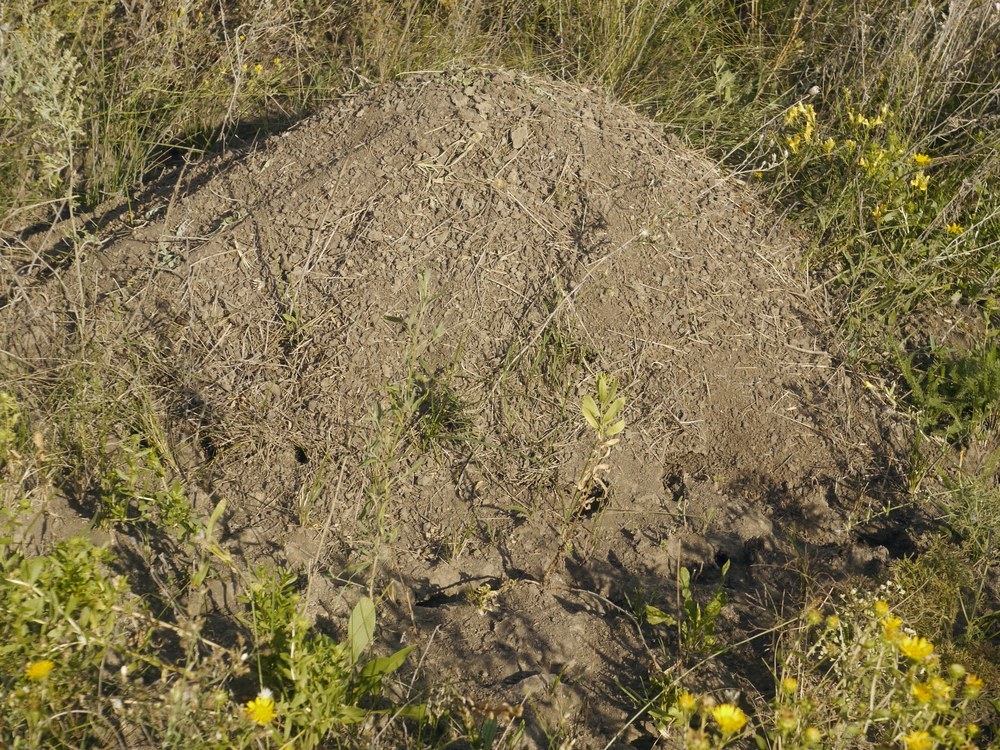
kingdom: Animalia
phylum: Chordata
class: Mammalia
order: Rodentia
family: Muridae
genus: Mus
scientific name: Mus spicilegus
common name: Mound-building mouse
